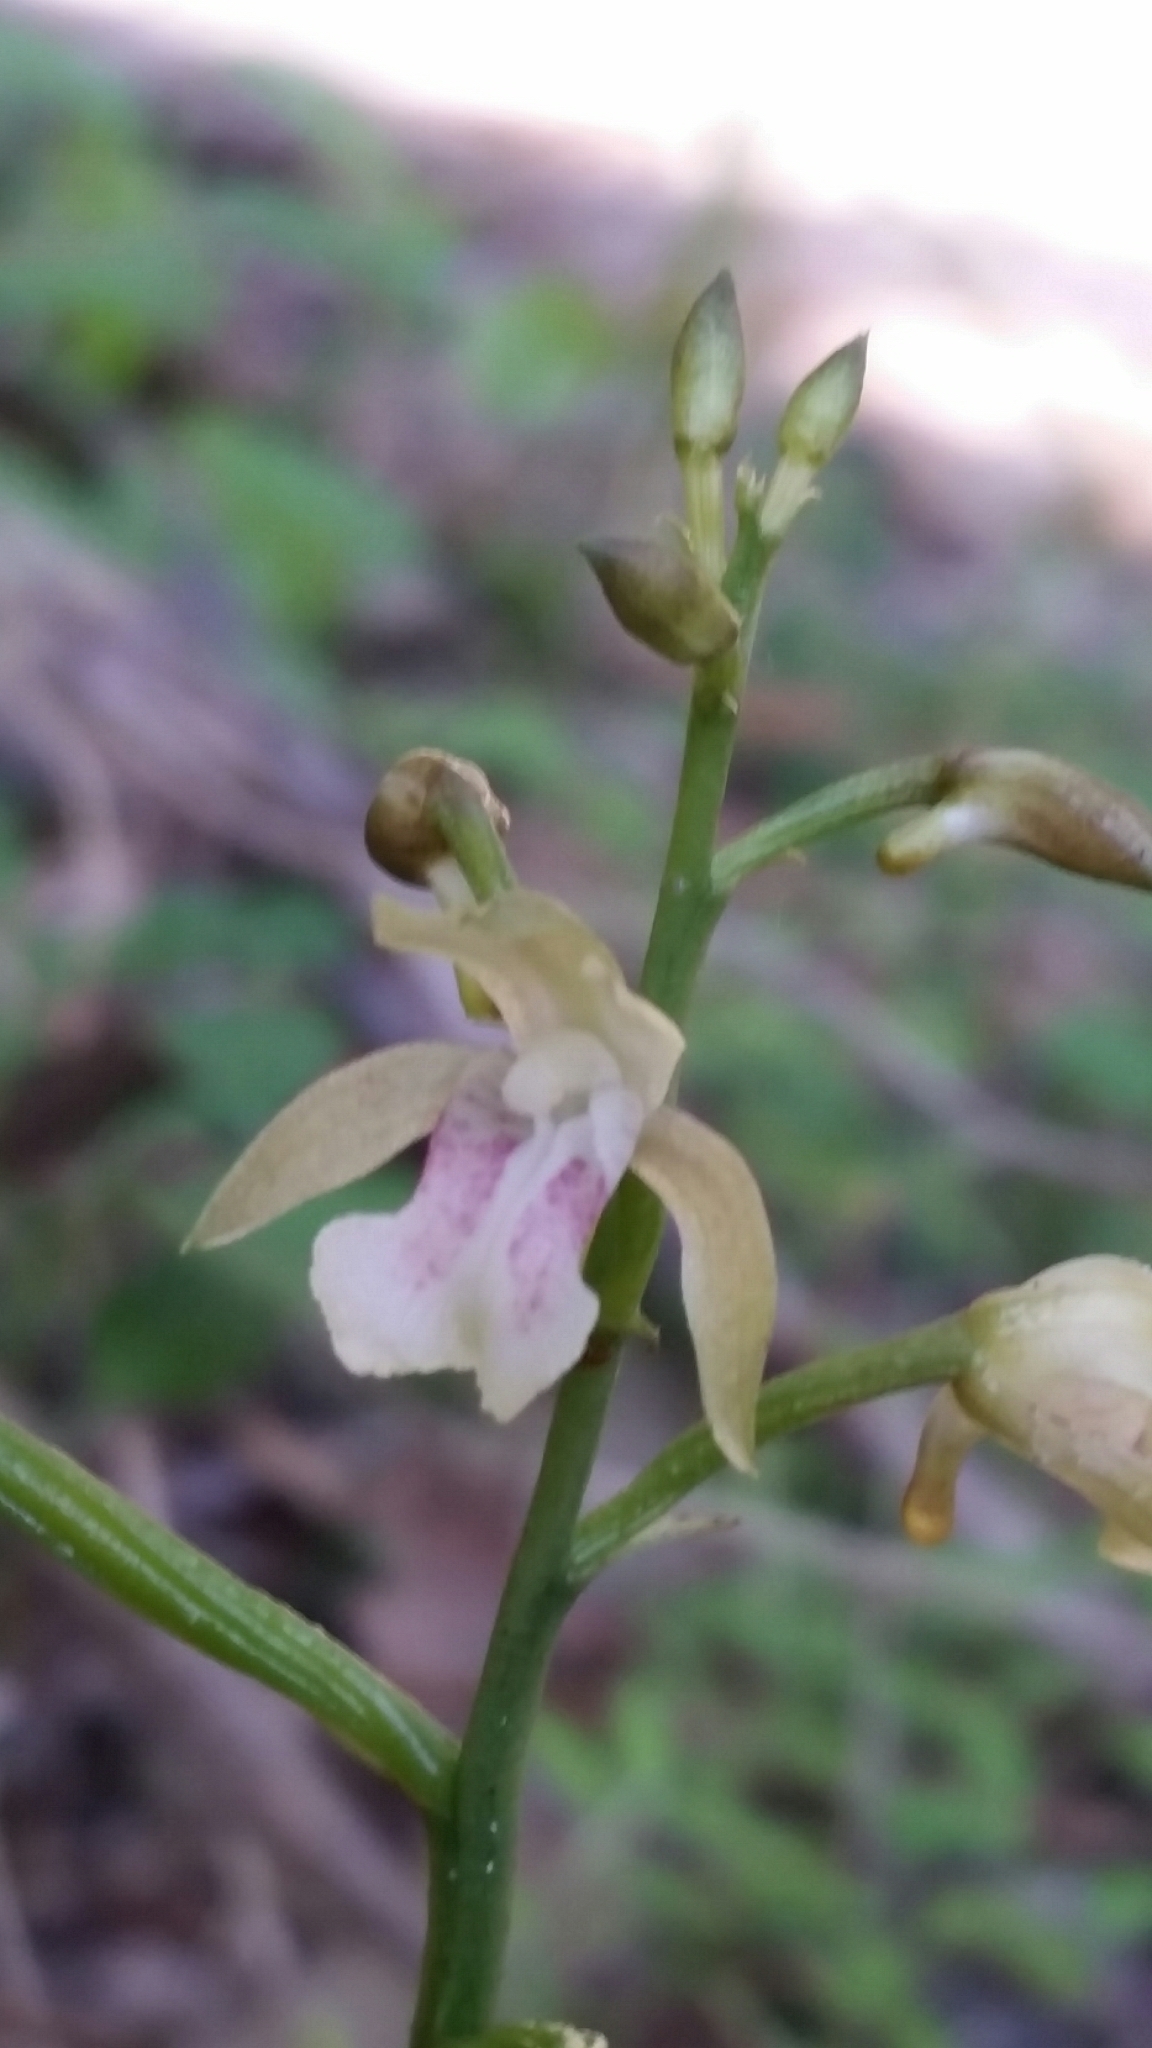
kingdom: Plantae
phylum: Tracheophyta
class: Liliopsida
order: Asparagales
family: Orchidaceae
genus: Eulophia
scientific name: Eulophia maculata
